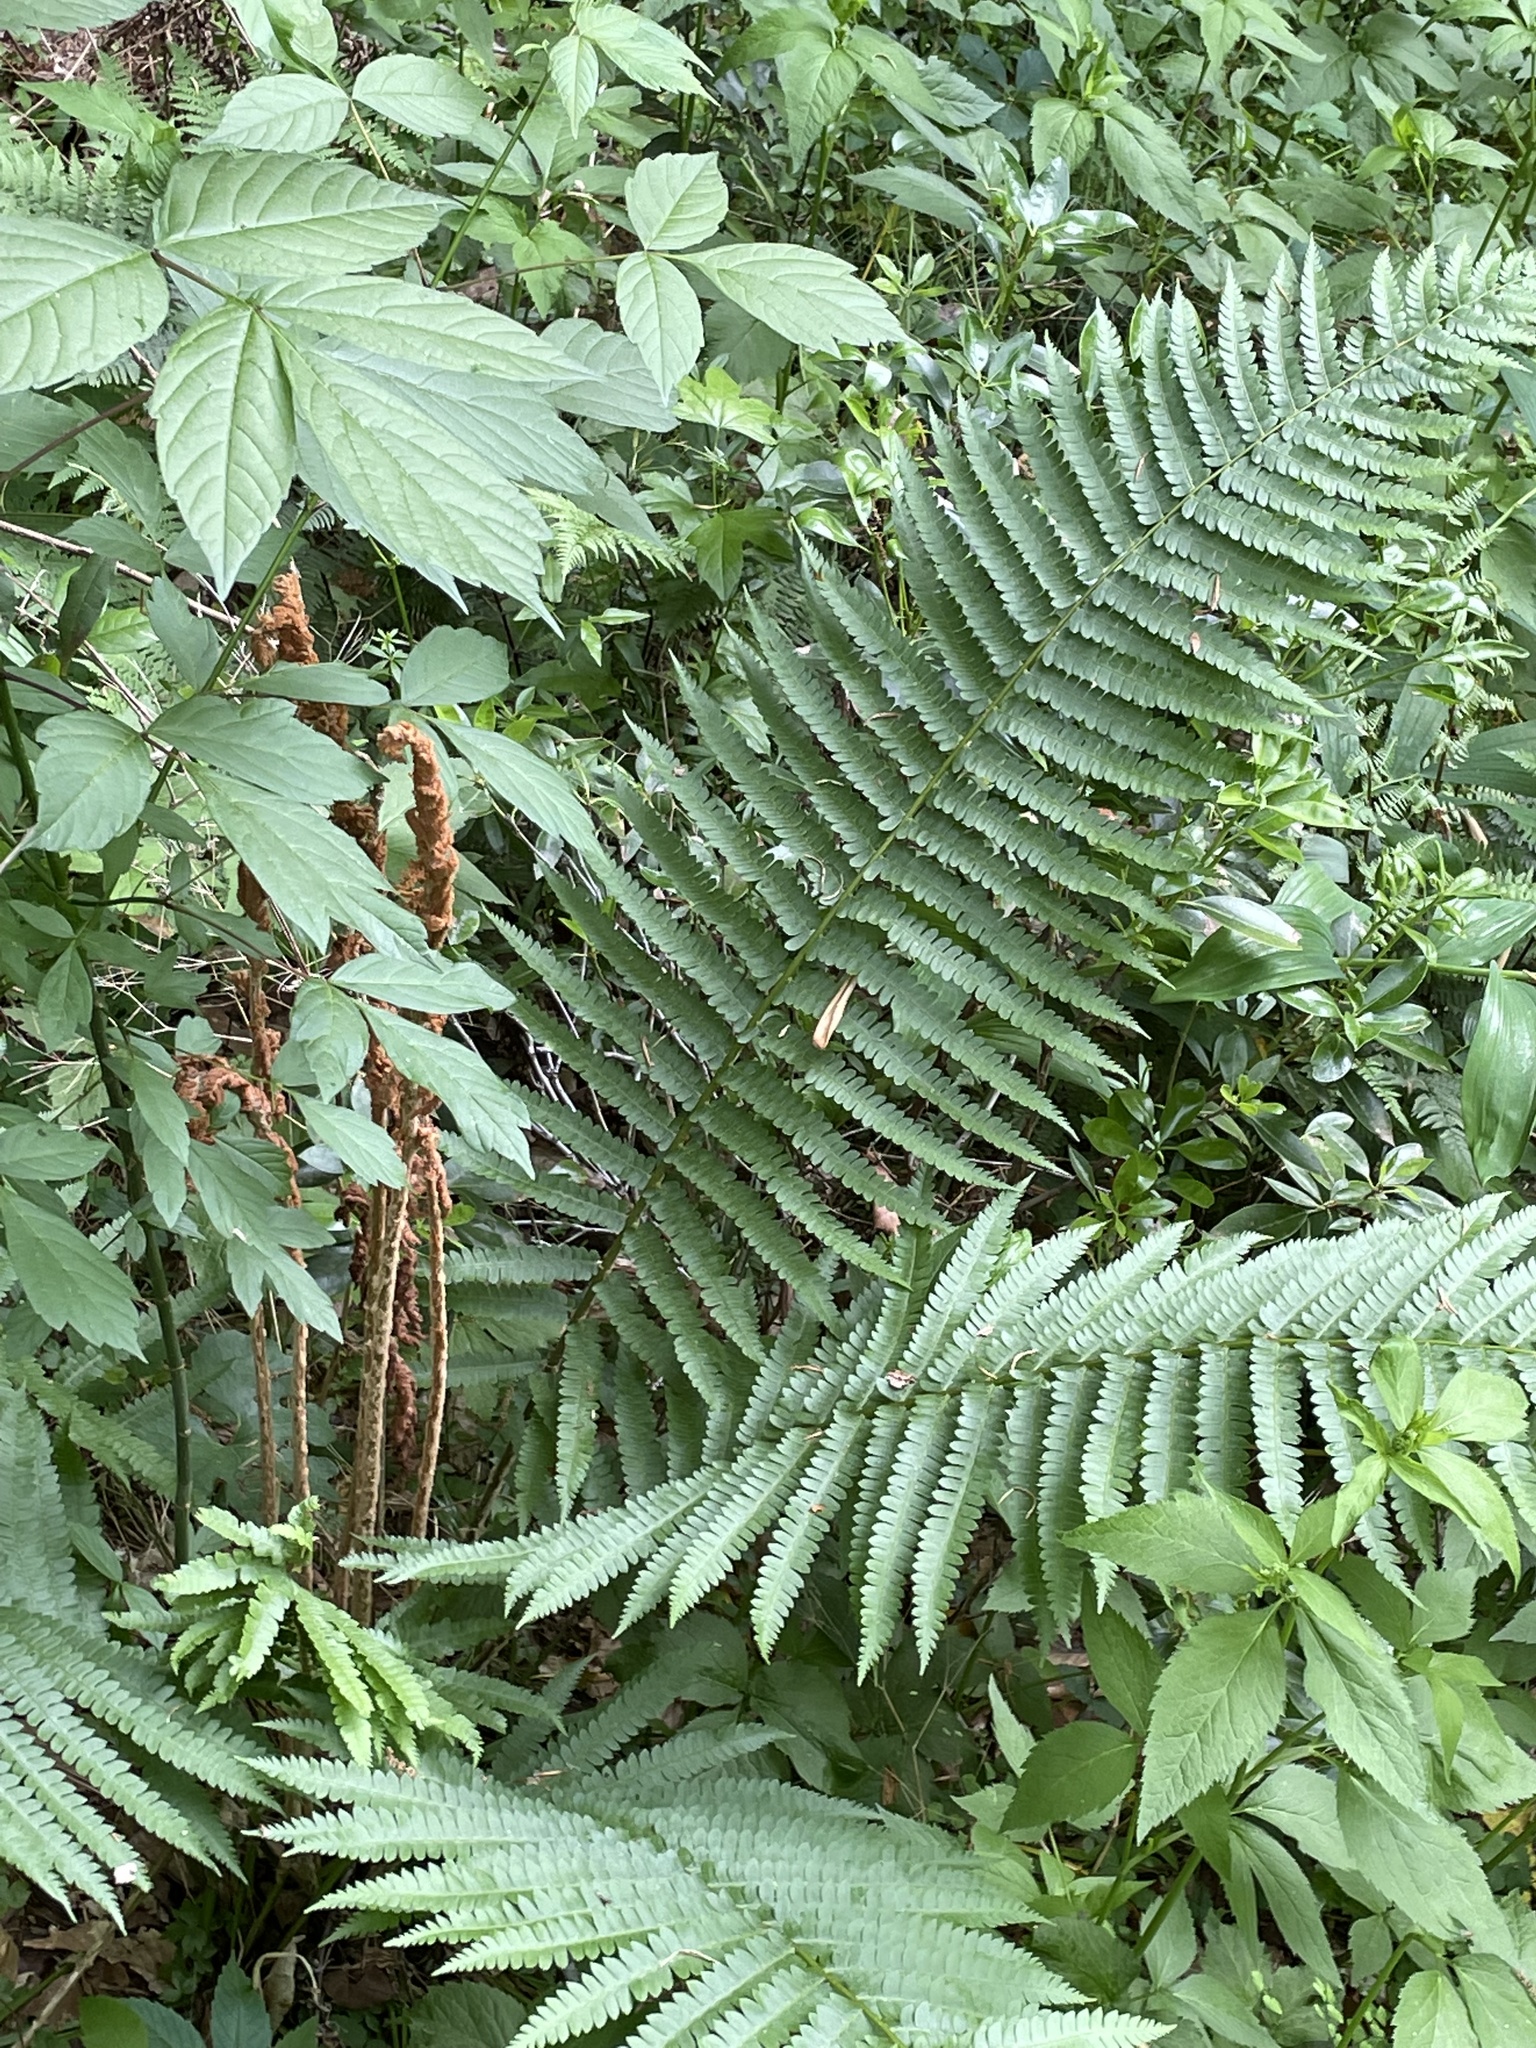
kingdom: Plantae
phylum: Tracheophyta
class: Polypodiopsida
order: Osmundales
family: Osmundaceae
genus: Osmundastrum
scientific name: Osmundastrum cinnamomeum
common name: Cinnamon fern
